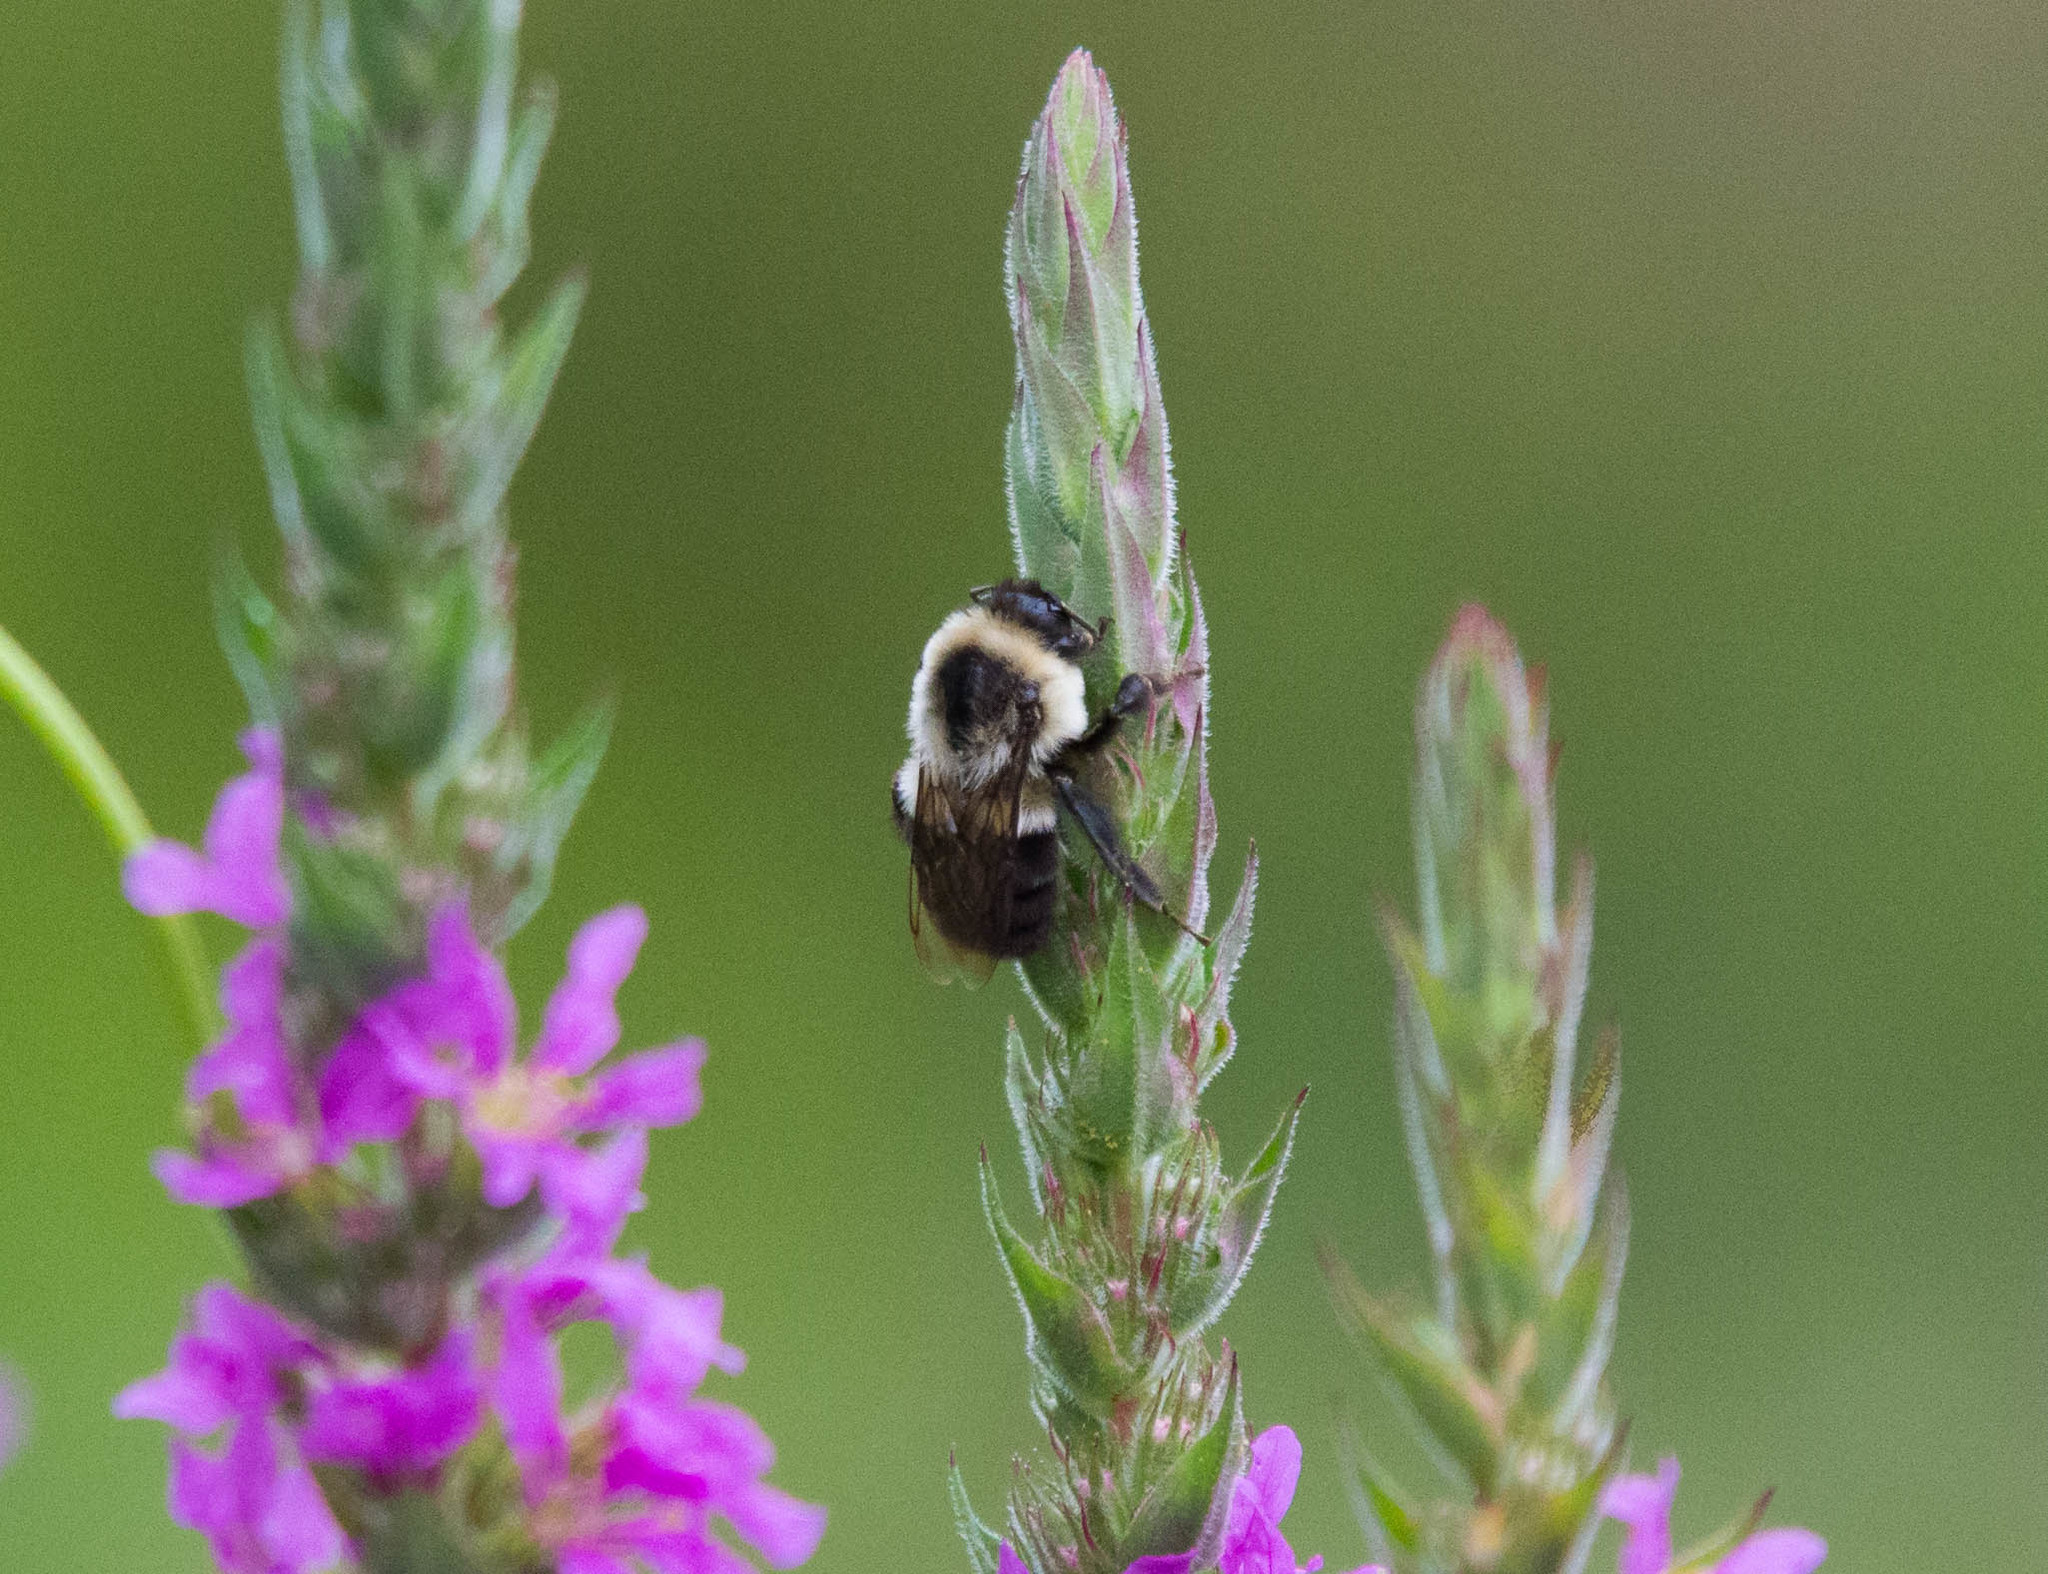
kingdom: Animalia
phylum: Arthropoda
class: Insecta
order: Hymenoptera
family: Apidae
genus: Bombus
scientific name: Bombus impatiens
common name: Common eastern bumble bee
